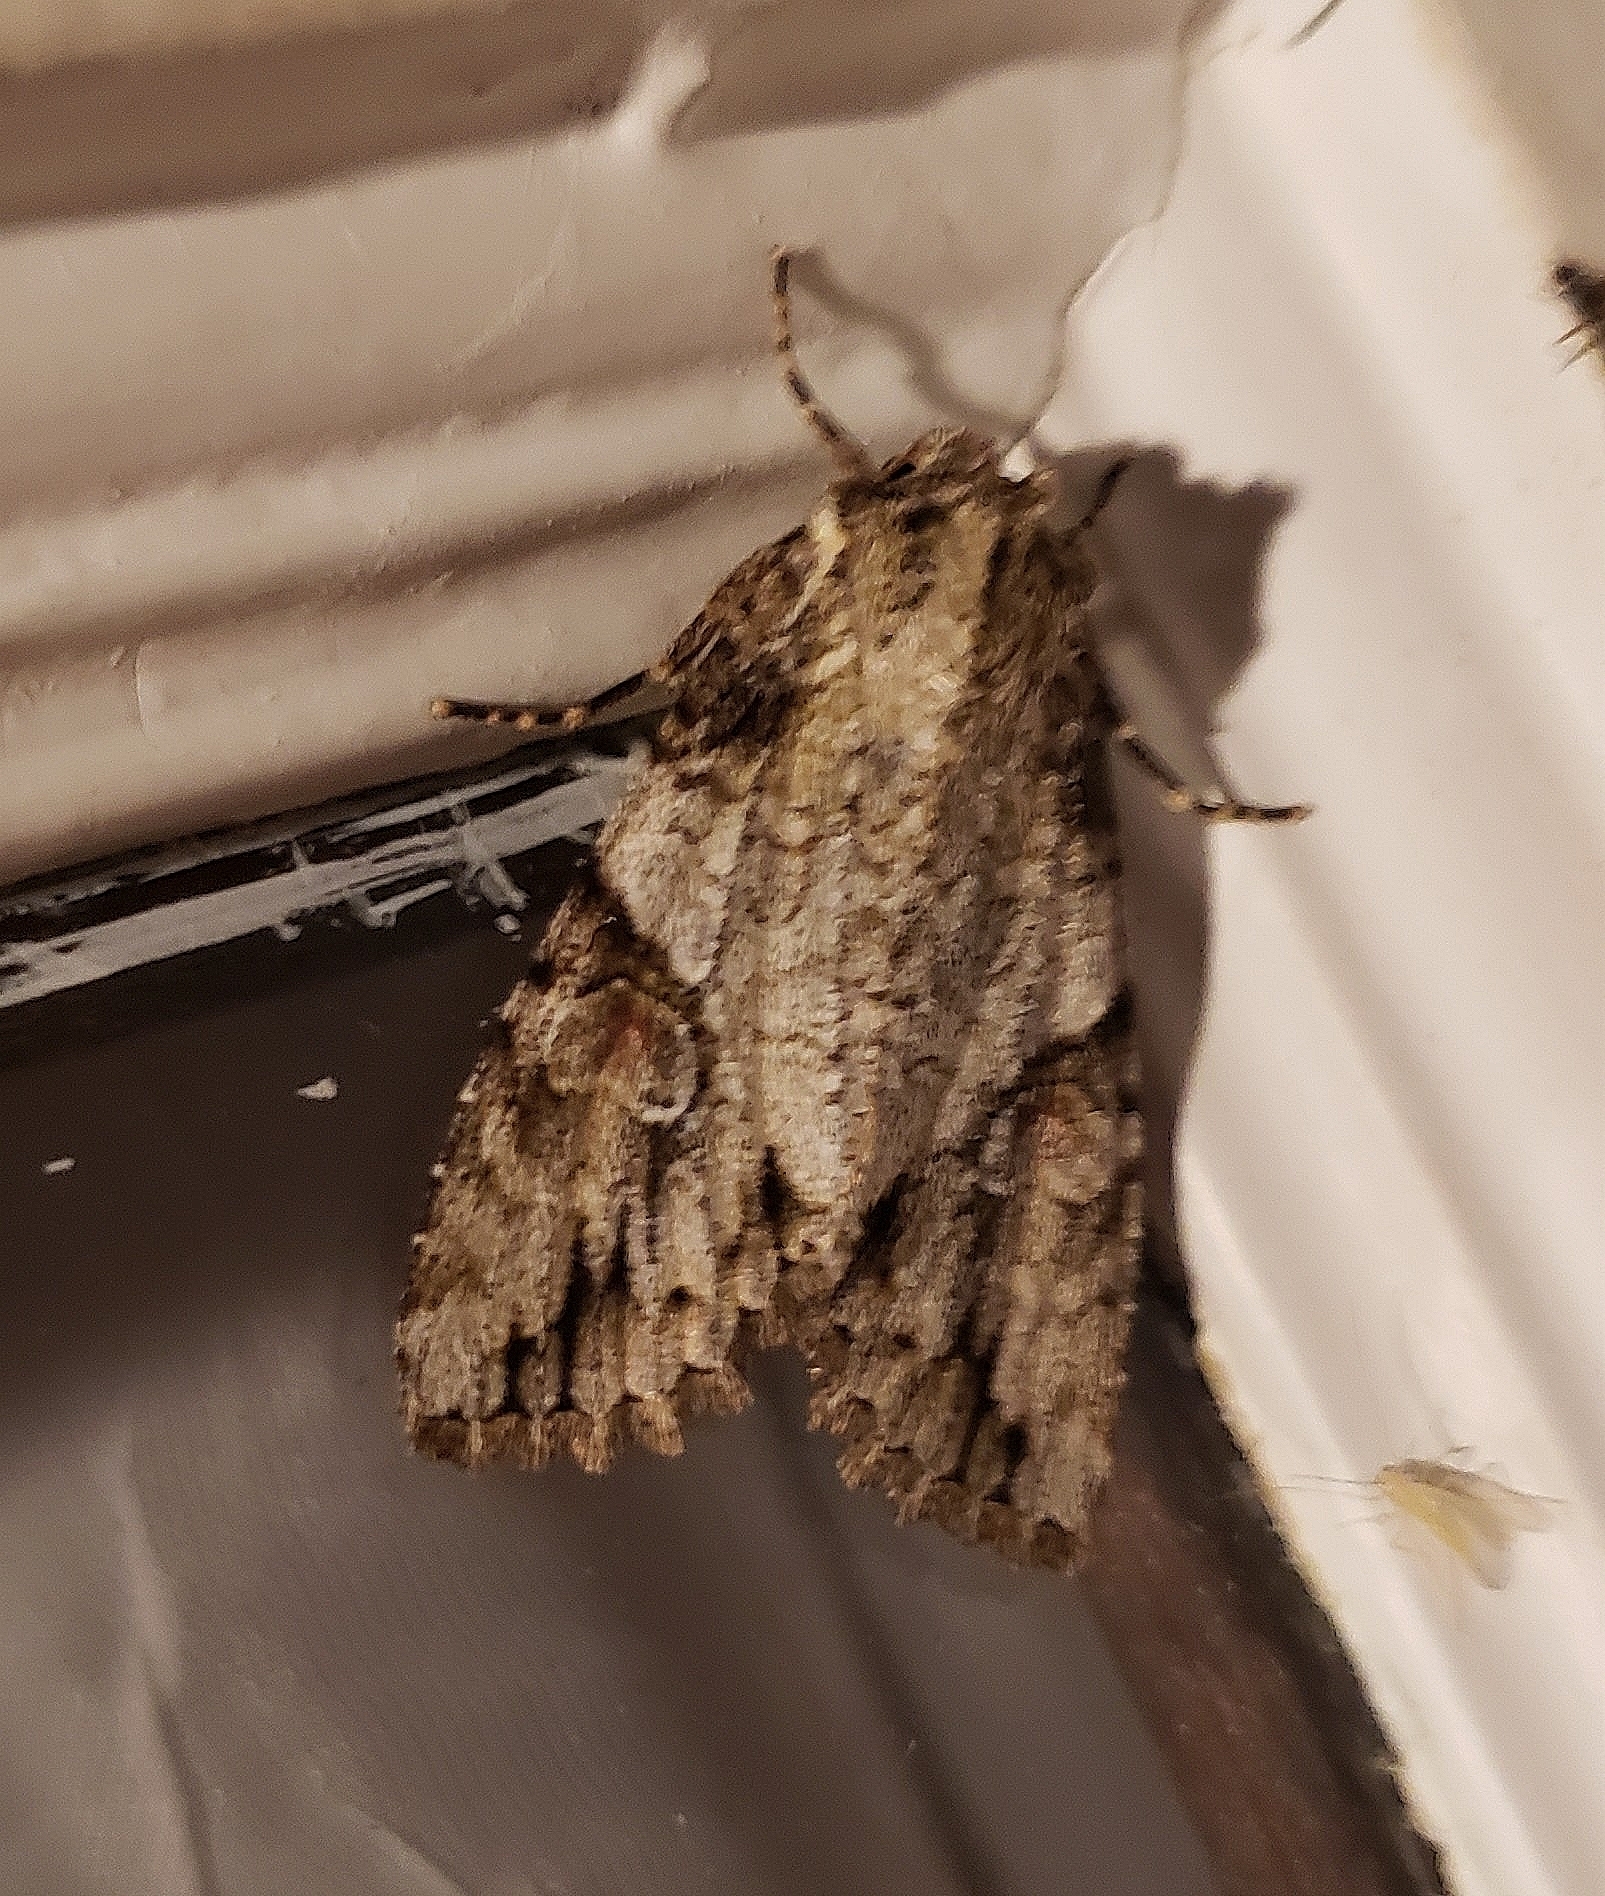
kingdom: Animalia
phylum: Arthropoda
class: Insecta
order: Lepidoptera
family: Noctuidae
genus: Achatia
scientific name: Achatia latex
